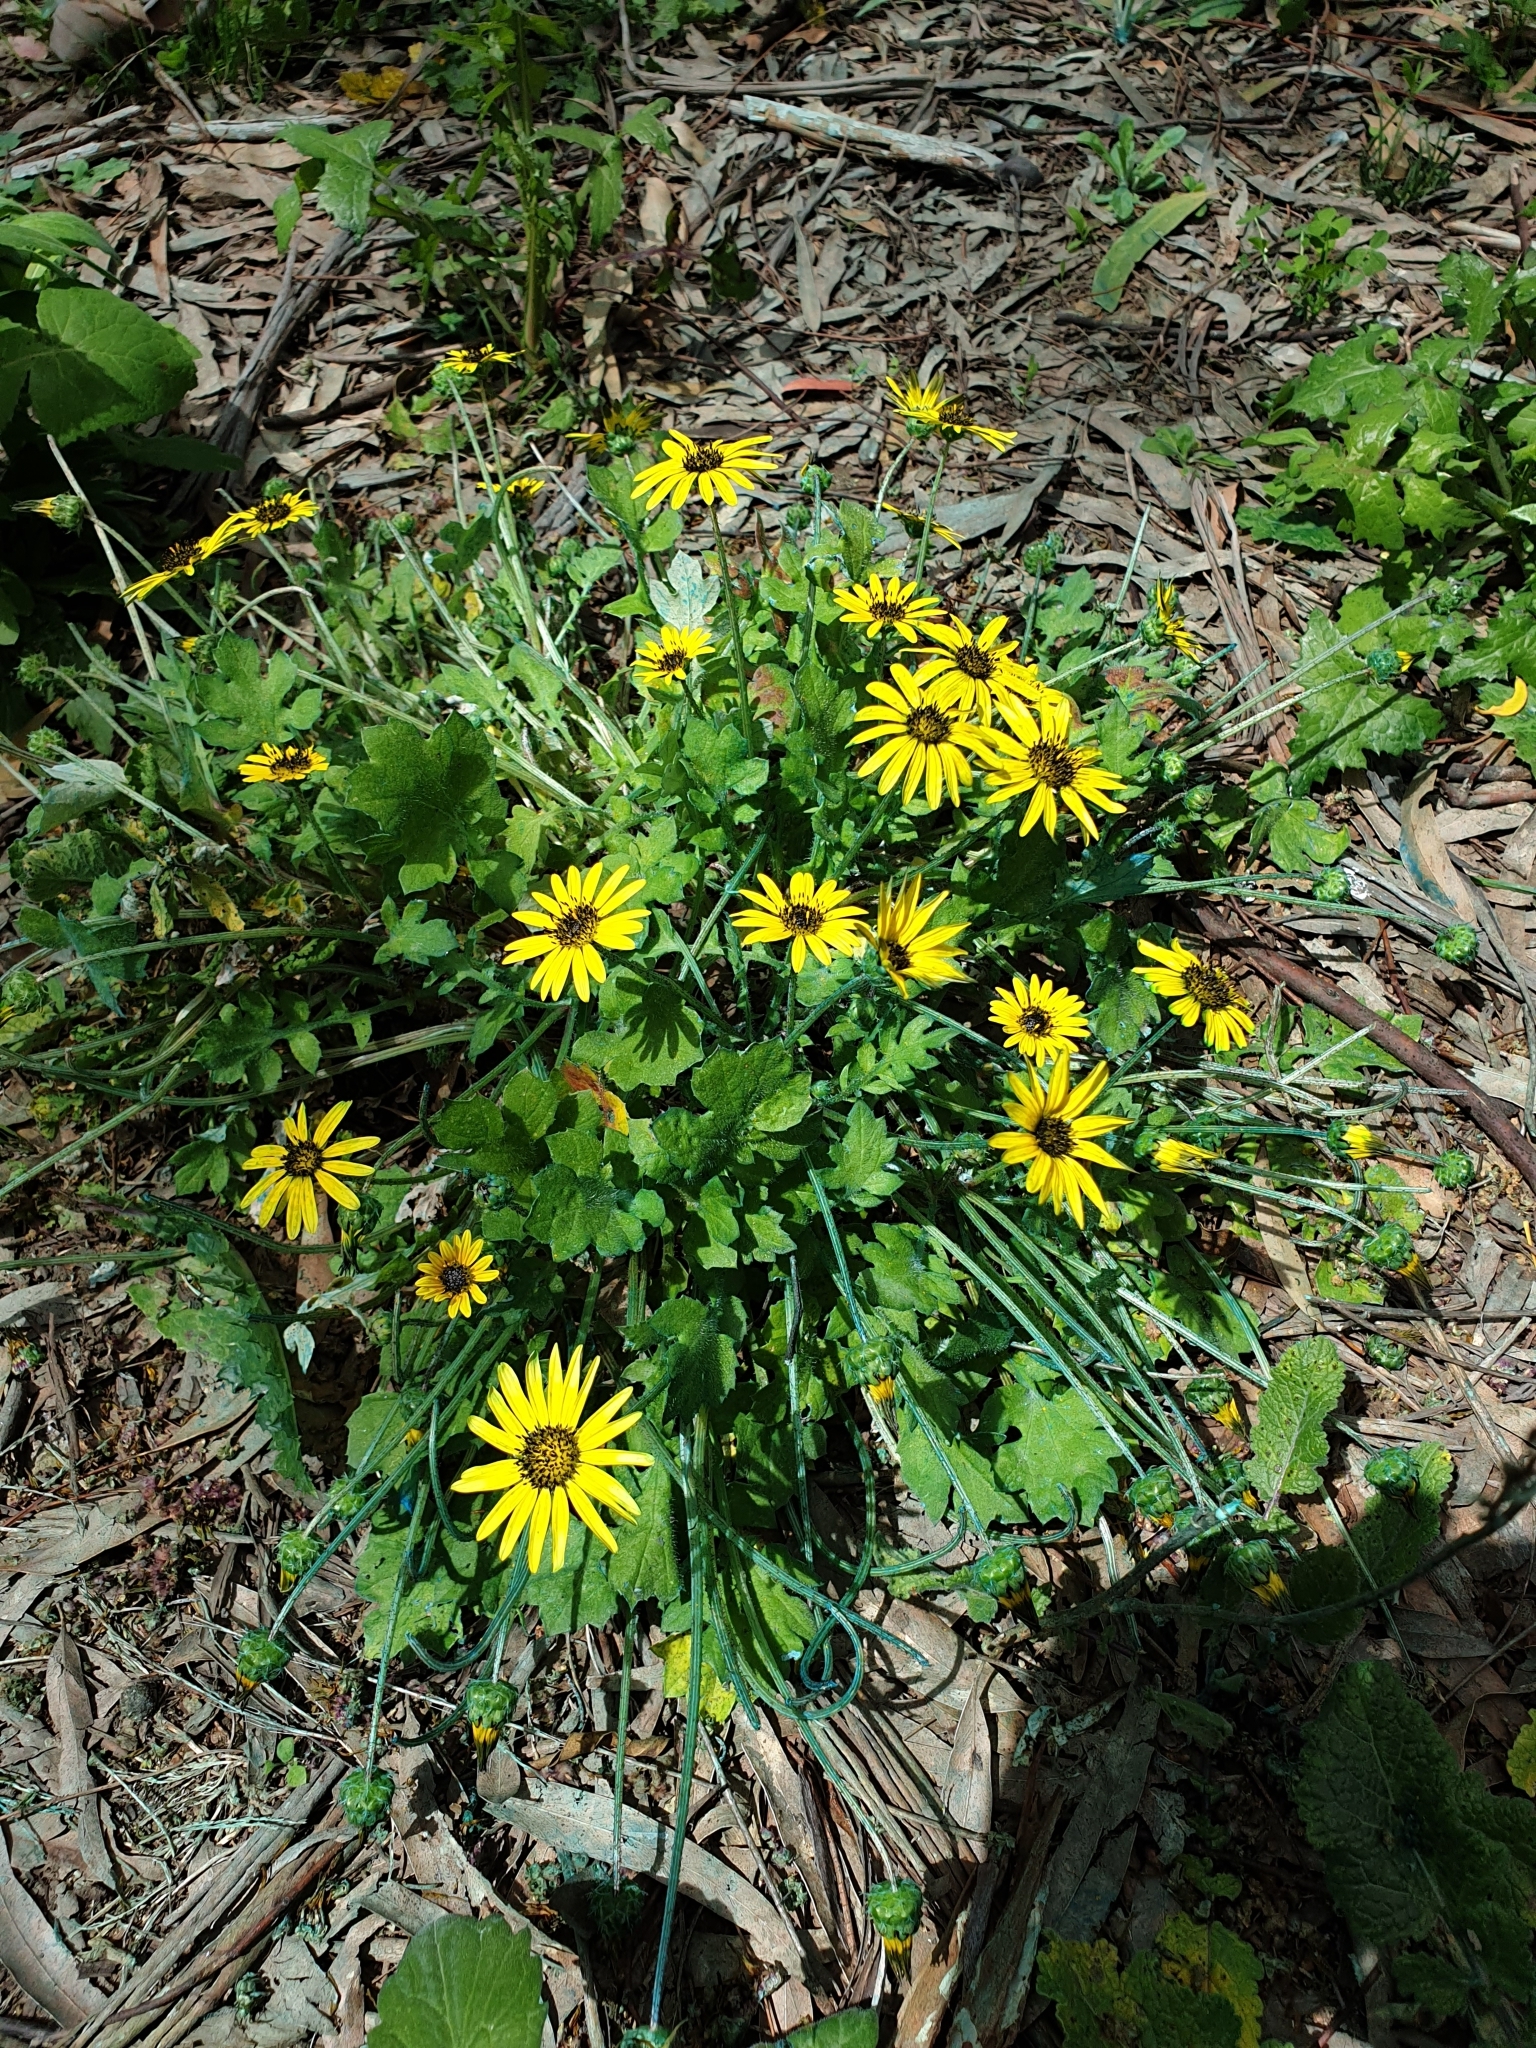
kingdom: Plantae
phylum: Tracheophyta
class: Magnoliopsida
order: Asterales
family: Asteraceae
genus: Arctotheca
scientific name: Arctotheca calendula
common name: Capeweed
